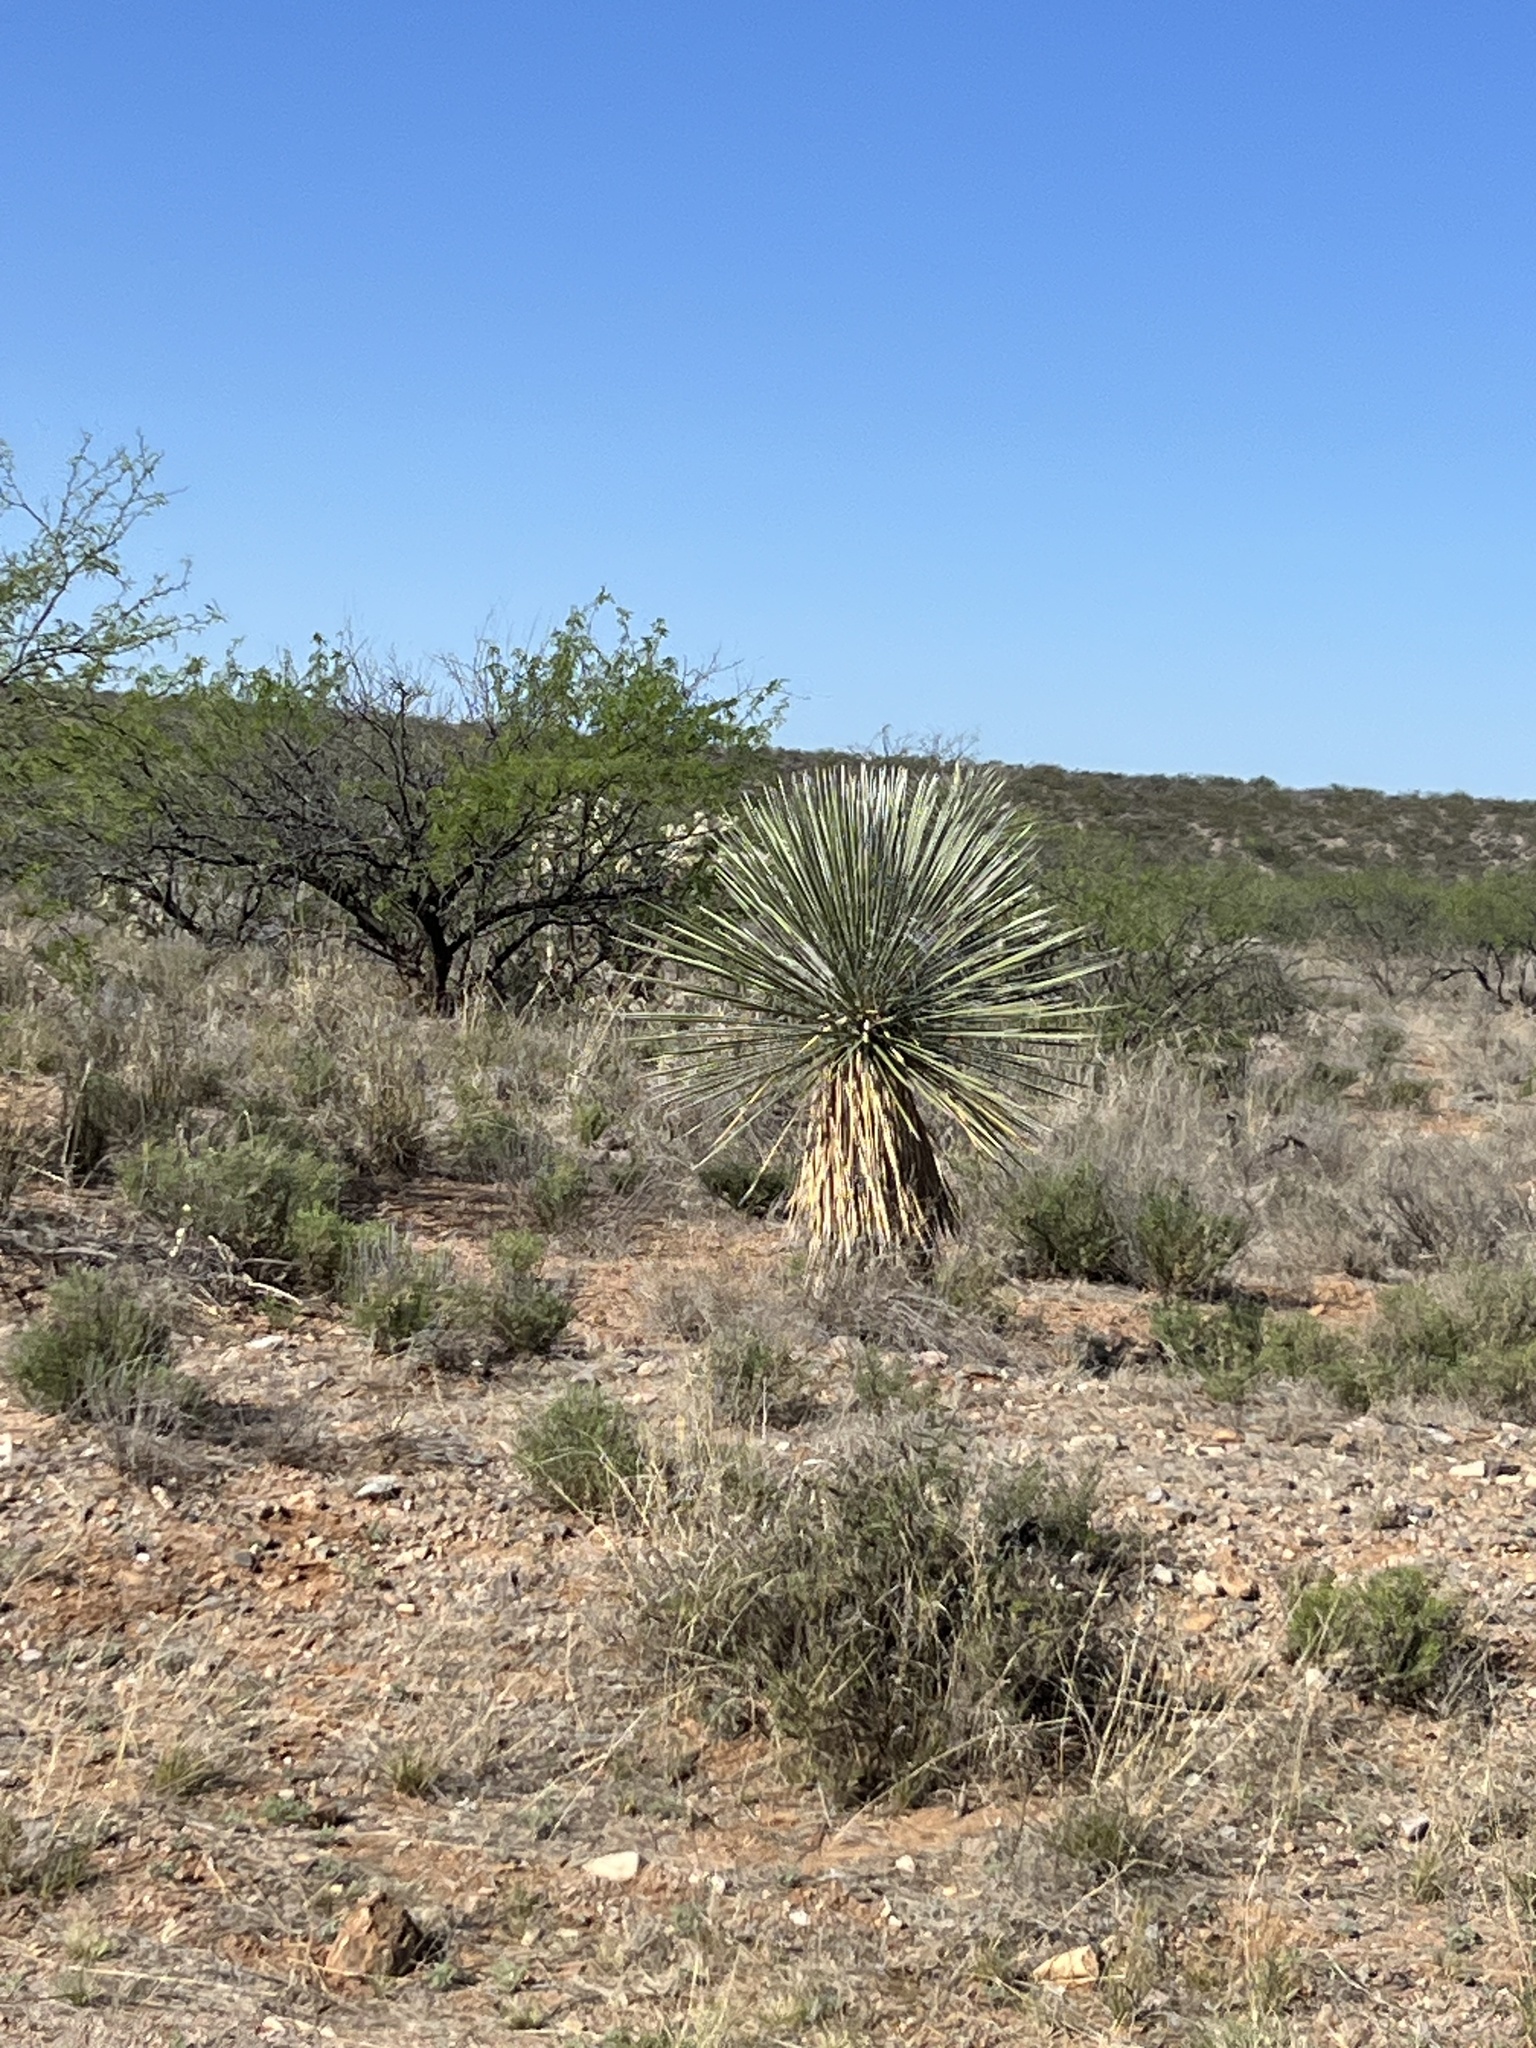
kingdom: Plantae
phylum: Tracheophyta
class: Liliopsida
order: Asparagales
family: Asparagaceae
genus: Yucca
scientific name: Yucca elata
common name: Palmella
